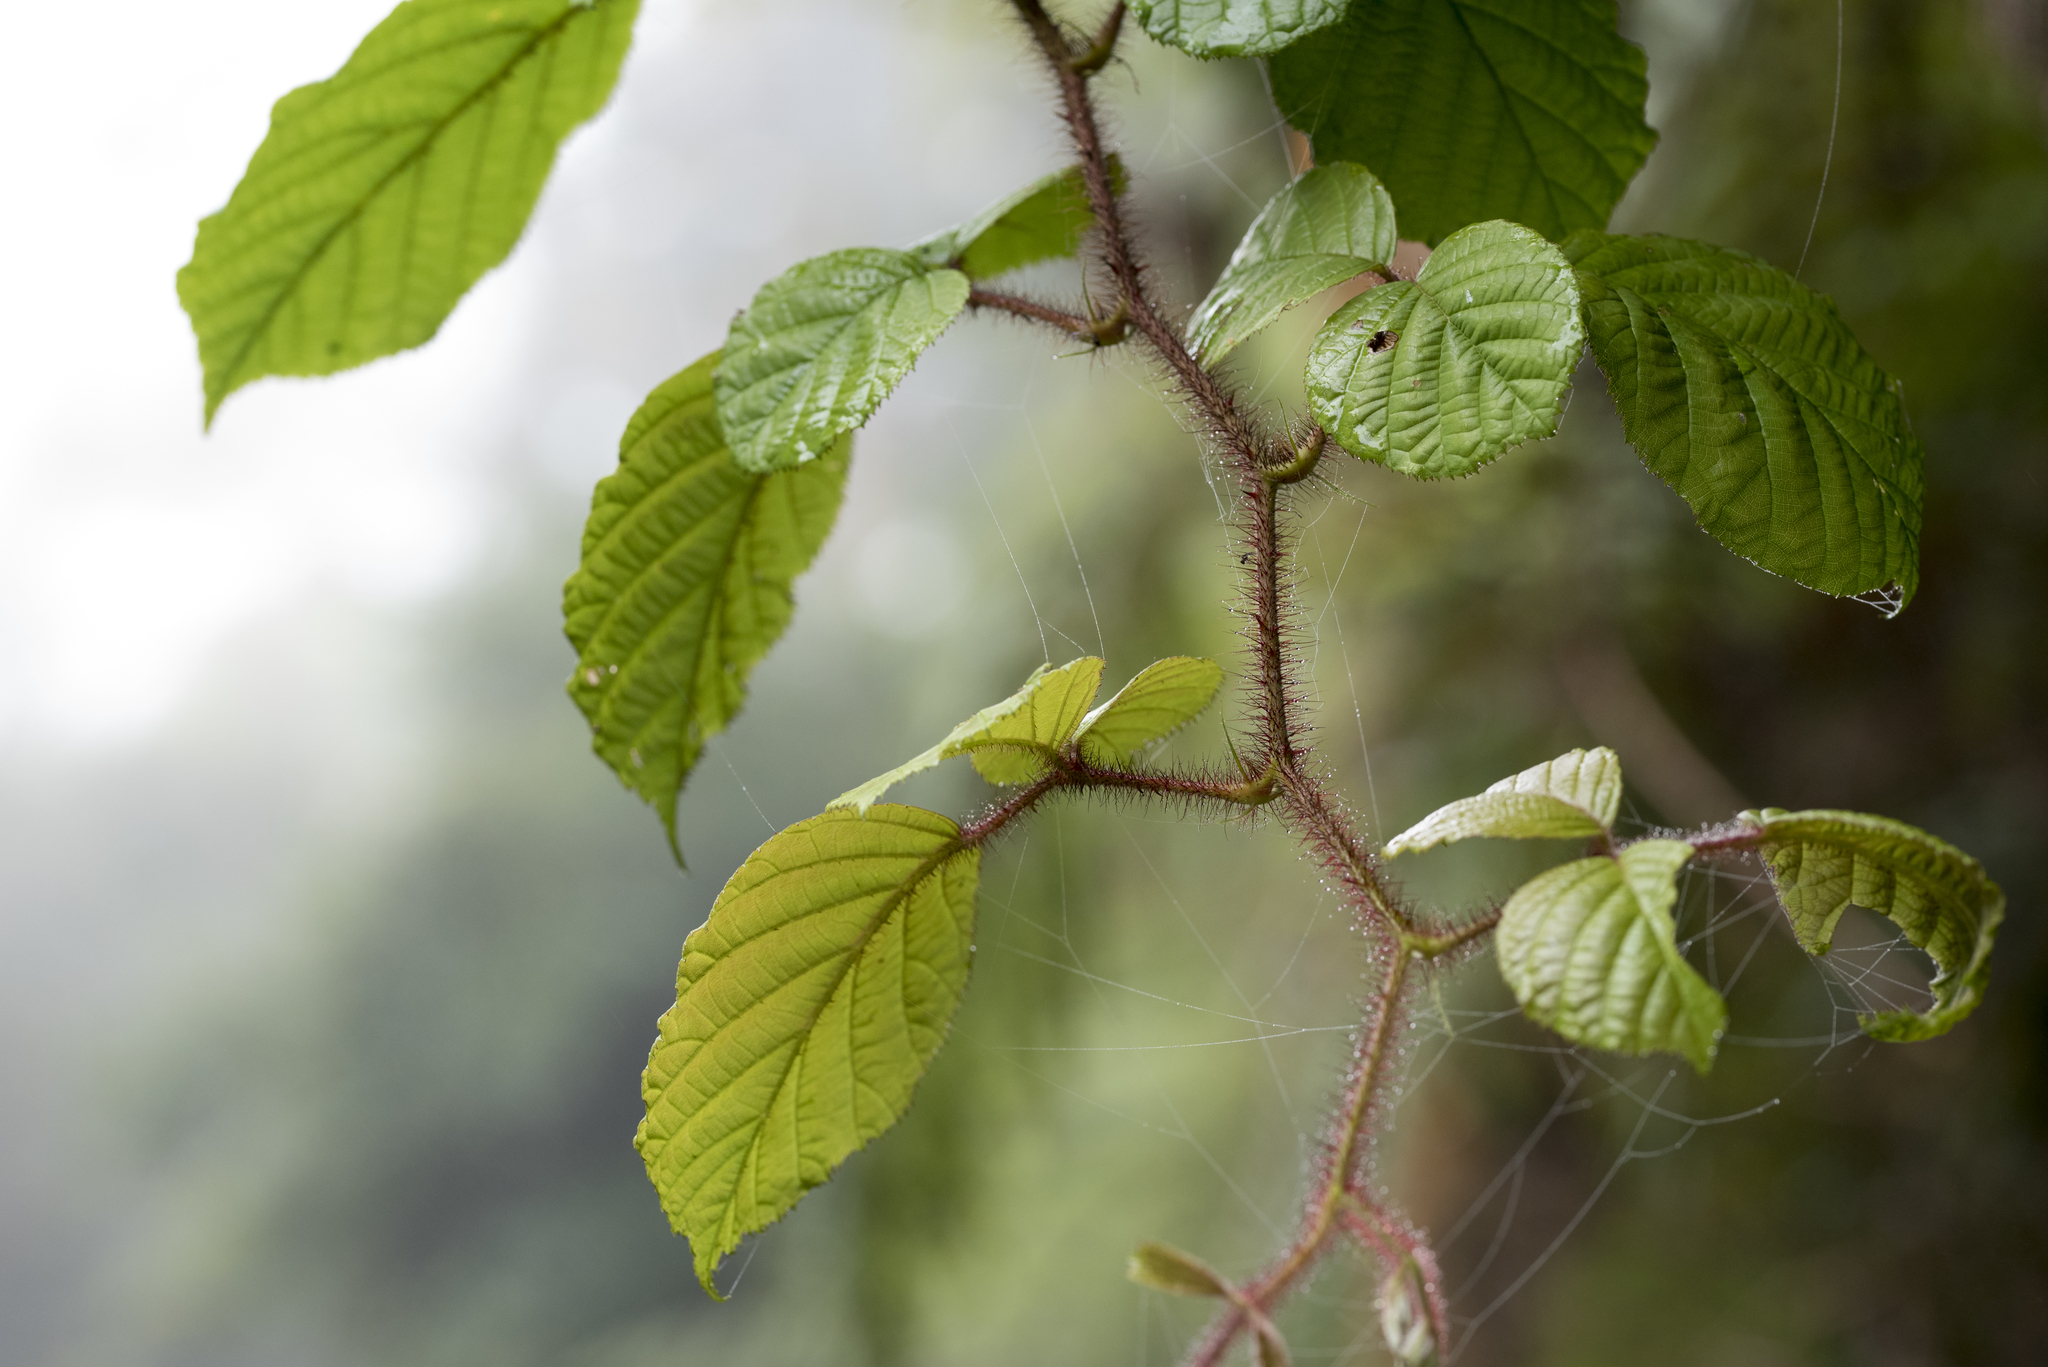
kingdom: Plantae
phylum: Tracheophyta
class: Magnoliopsida
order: Rosales
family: Rosaceae
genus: Rubus
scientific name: Rubus ellipticus
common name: Cheeseberry
